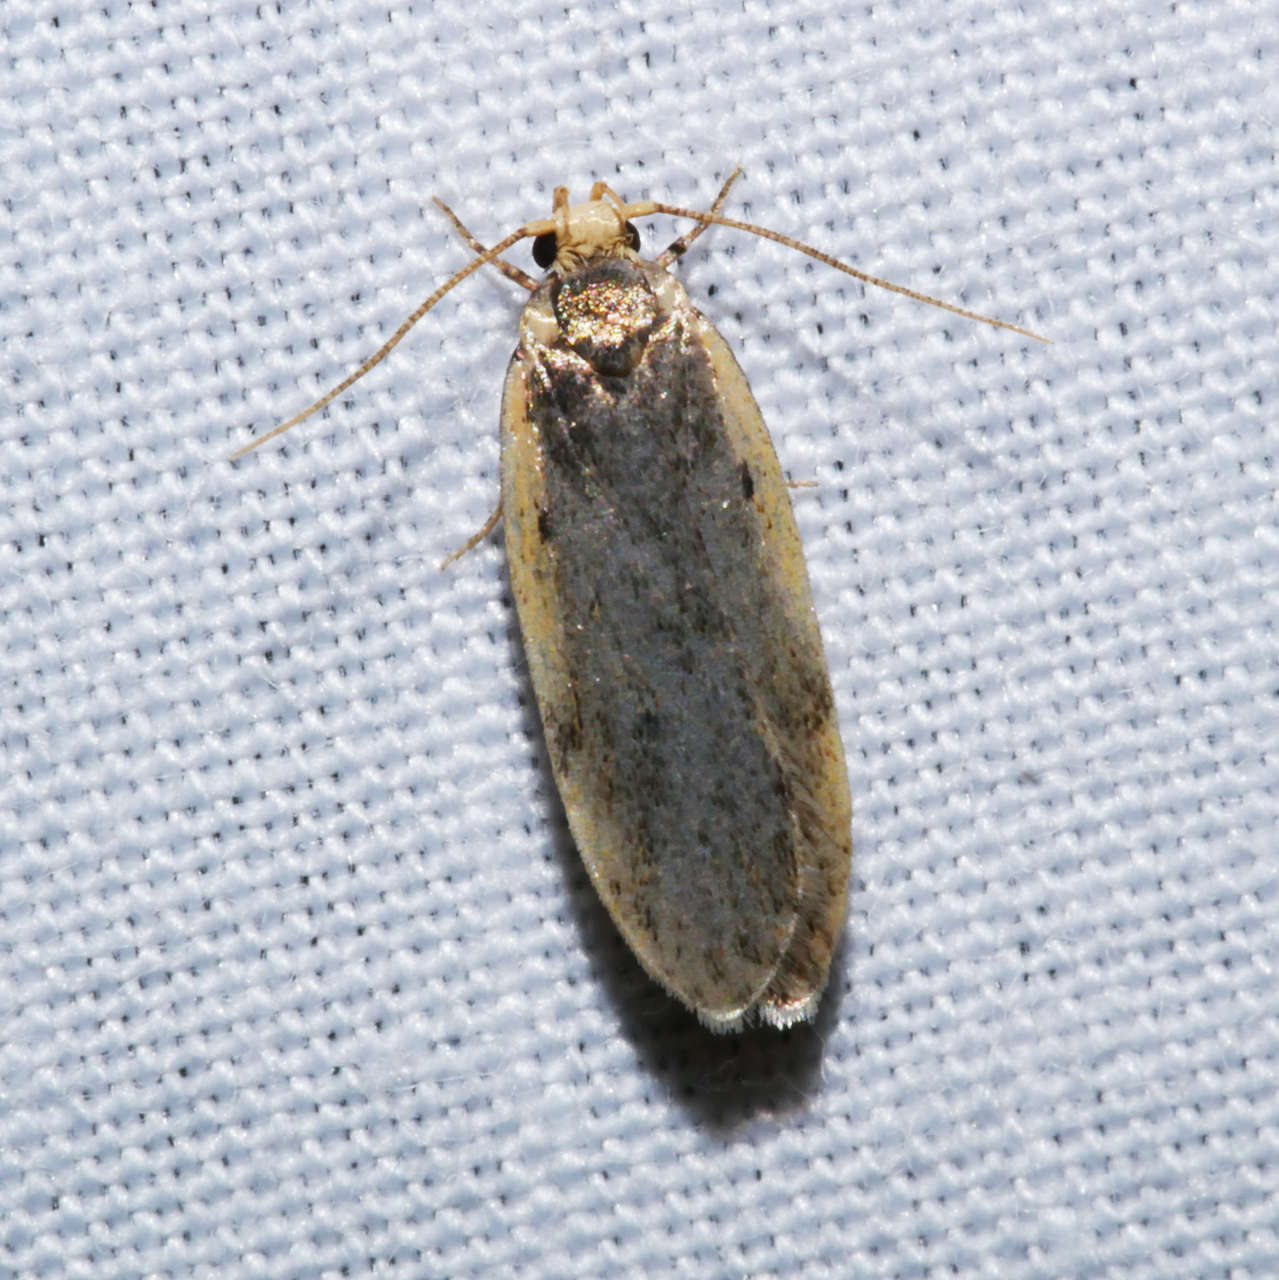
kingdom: Animalia
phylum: Arthropoda
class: Insecta
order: Lepidoptera
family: Oecophoridae
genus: Hoplostega
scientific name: Hoplostega ochroma
